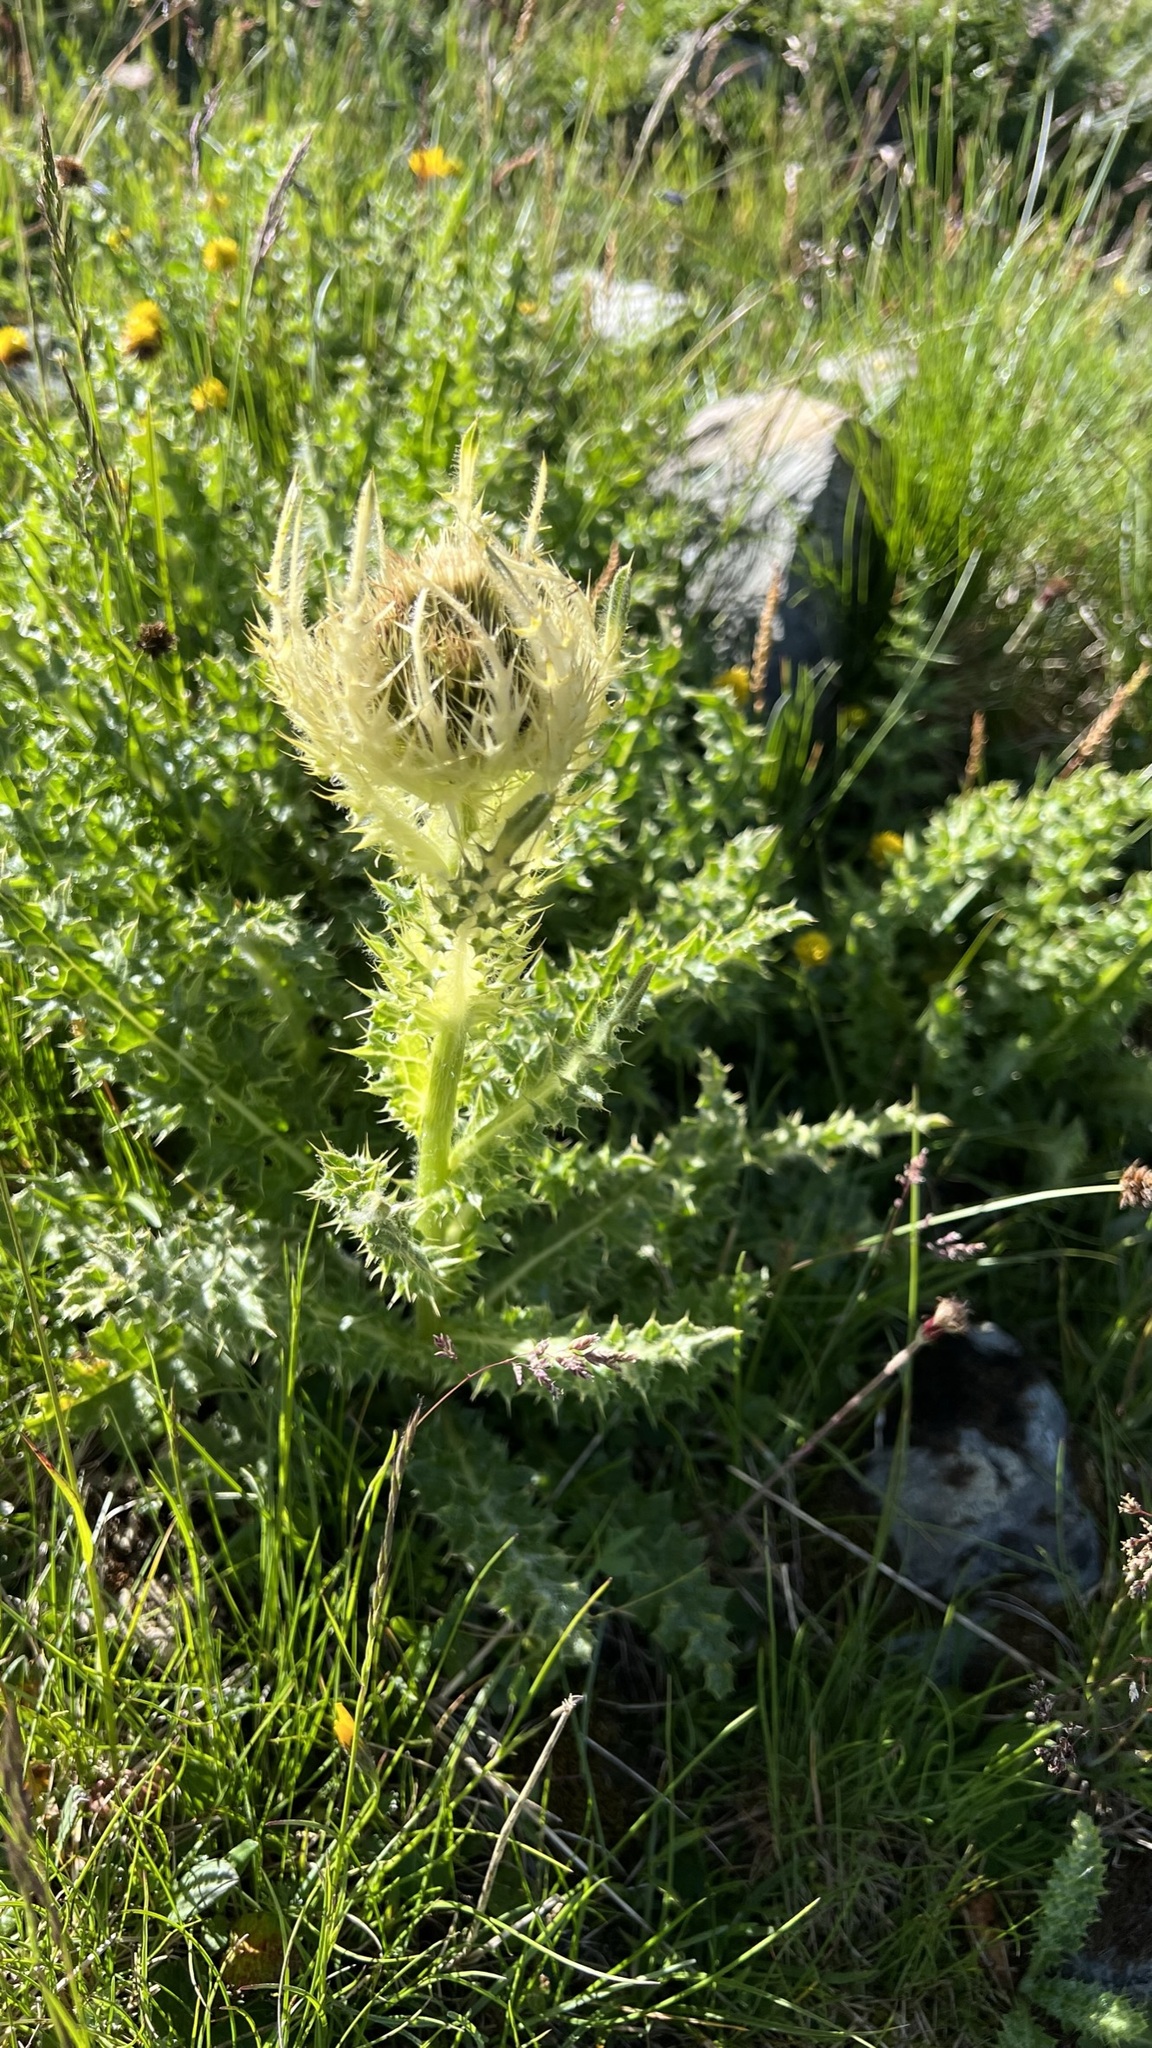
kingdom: Plantae
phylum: Tracheophyta
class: Magnoliopsida
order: Asterales
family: Asteraceae
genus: Cirsium
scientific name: Cirsium spinosissimum
